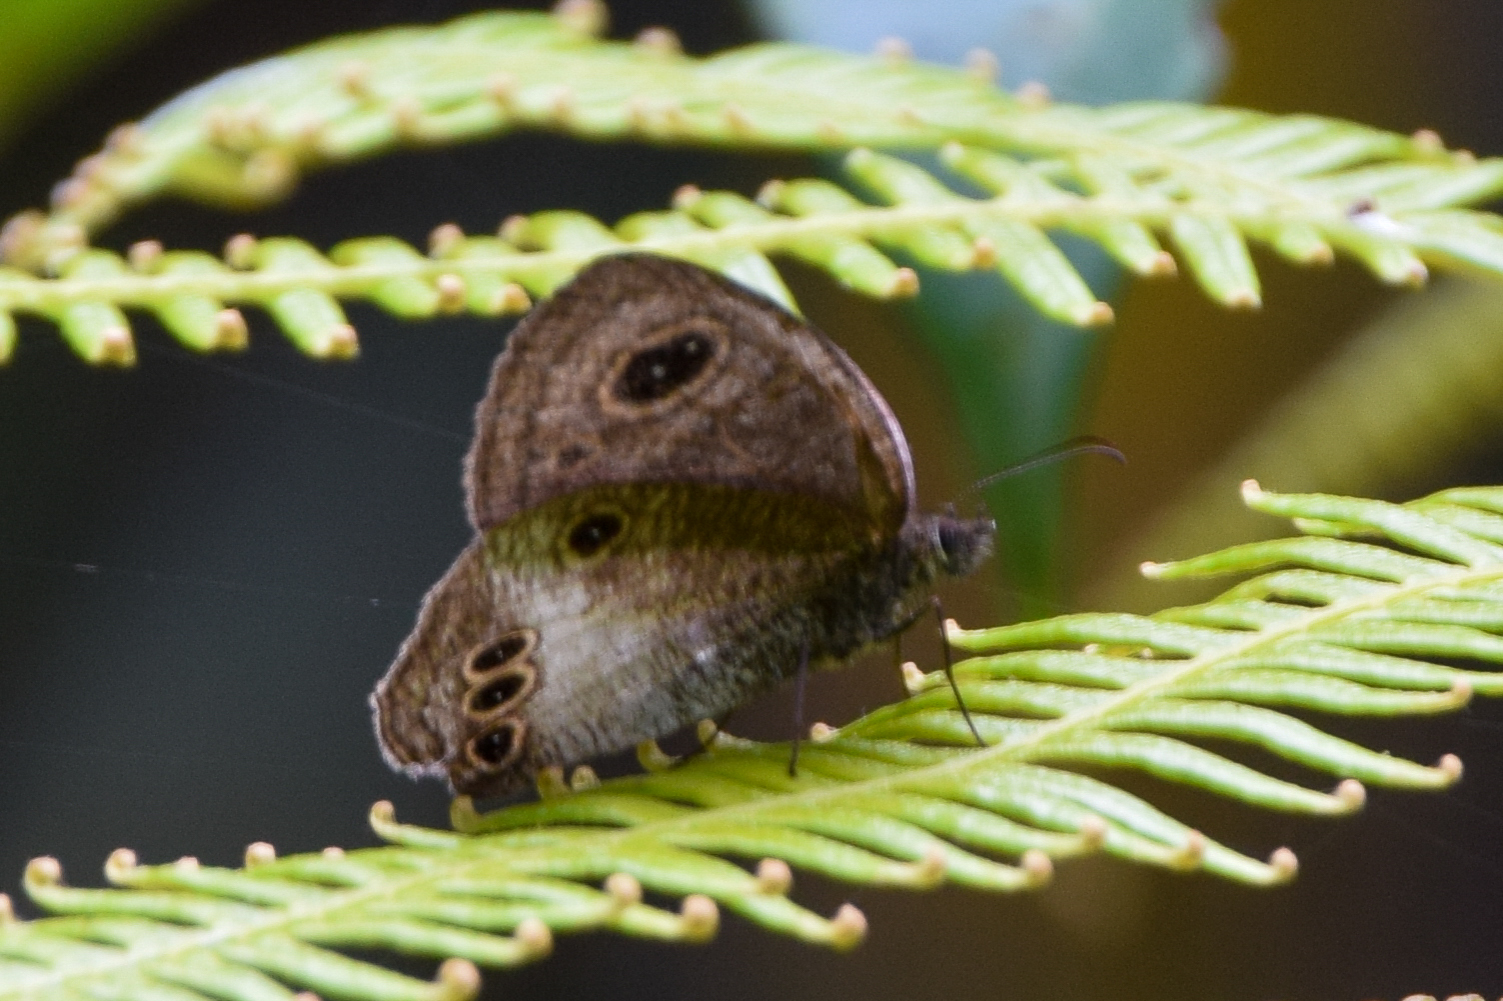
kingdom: Animalia
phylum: Arthropoda
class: Insecta
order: Lepidoptera
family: Nymphalidae
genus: Ypthima
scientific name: Ypthima gawalisi
